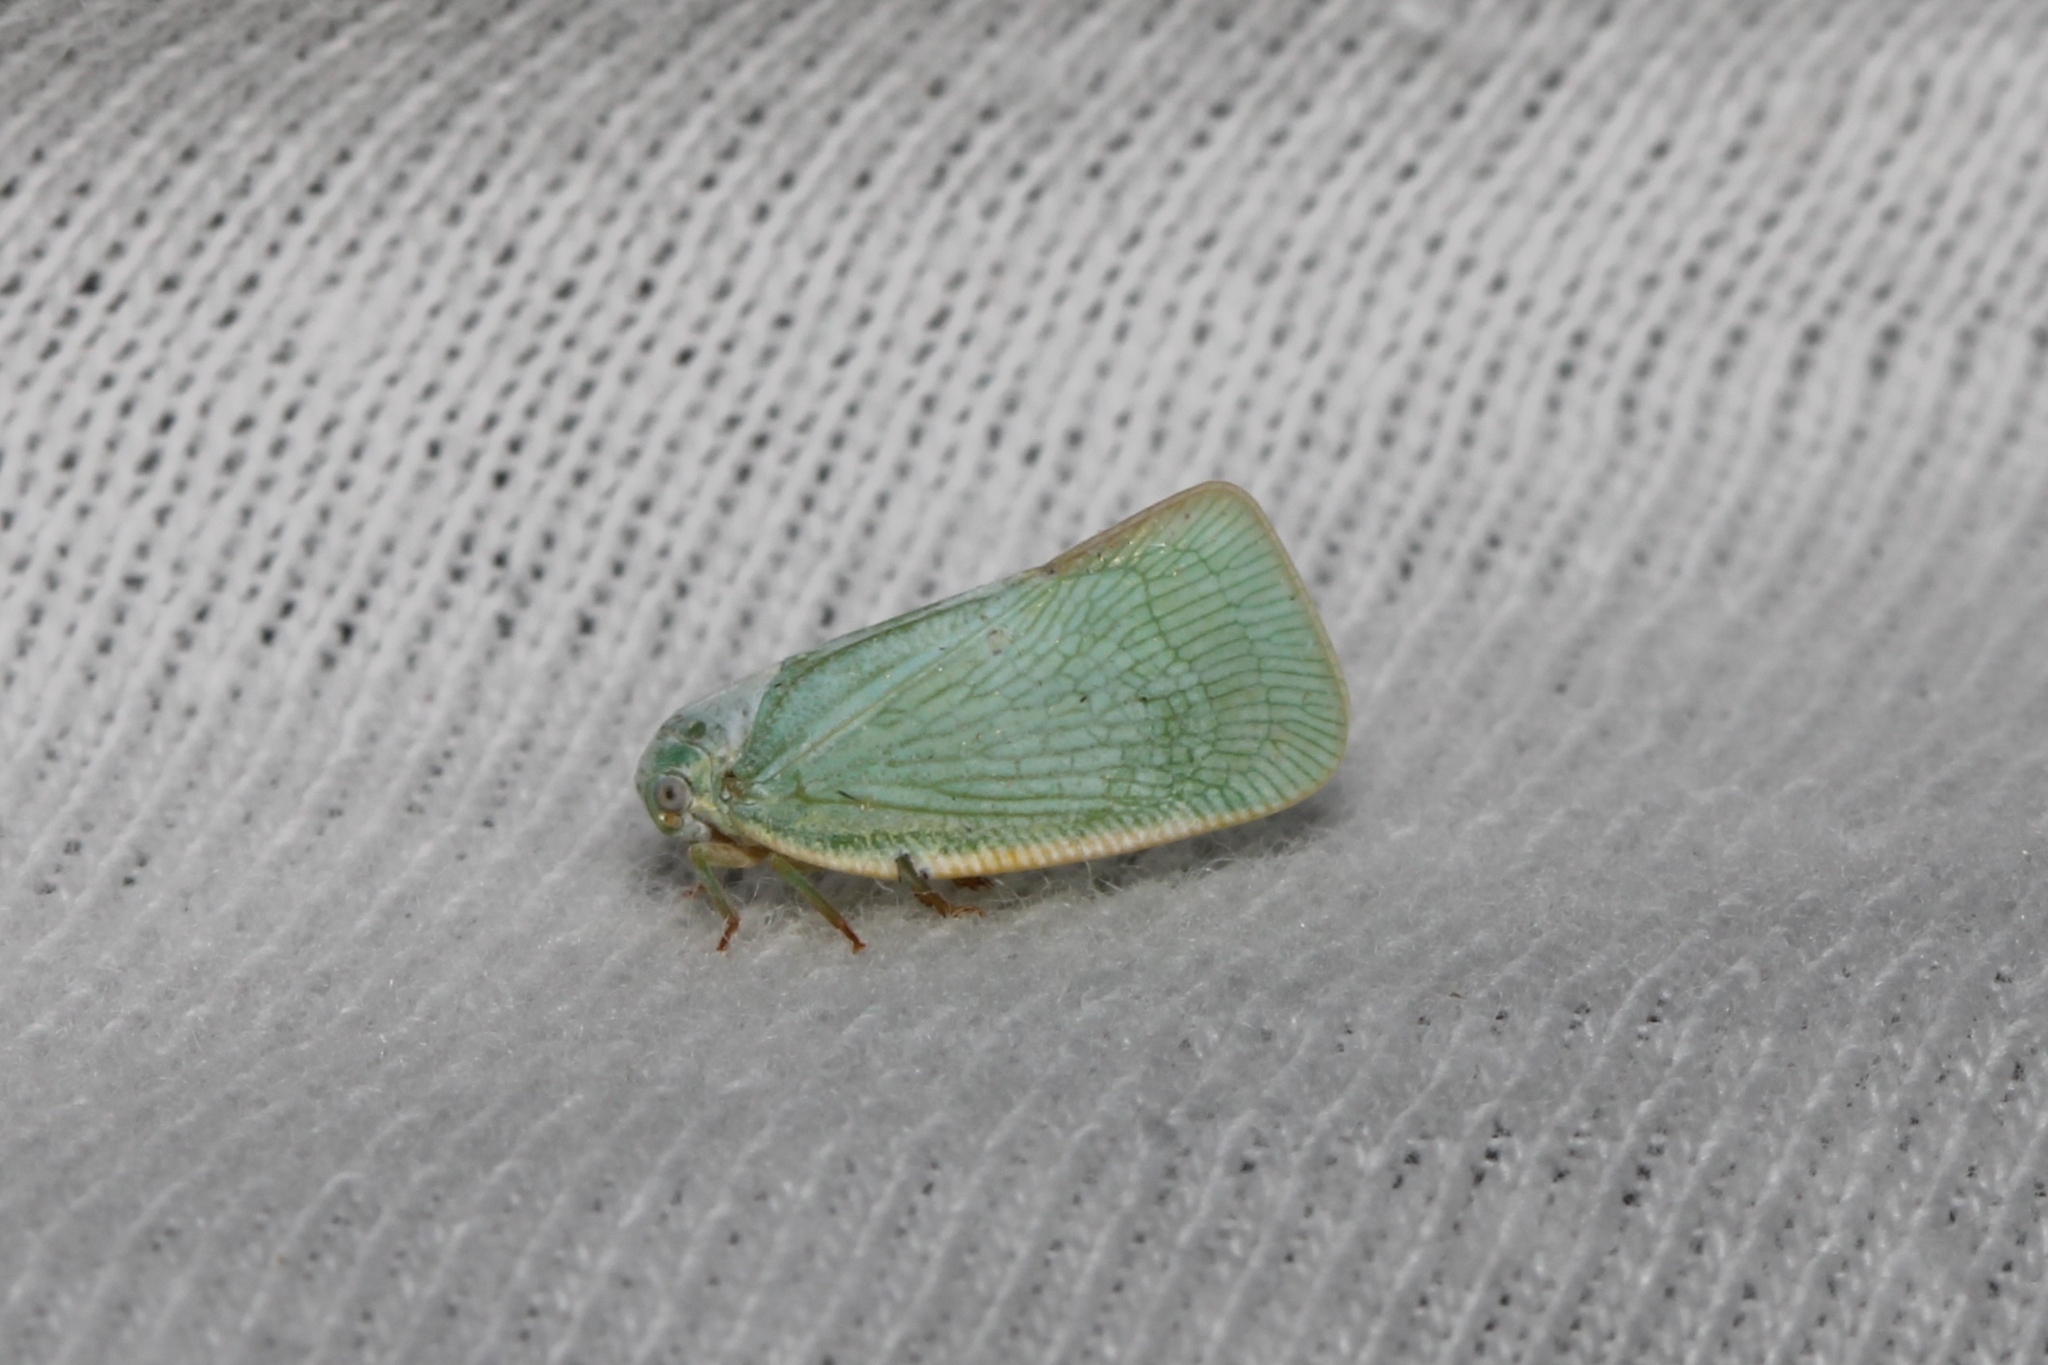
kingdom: Animalia
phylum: Arthropoda
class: Insecta
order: Hemiptera
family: Flatidae
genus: Flatormenis
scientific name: Flatormenis proxima
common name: Northern flatid planthopper
